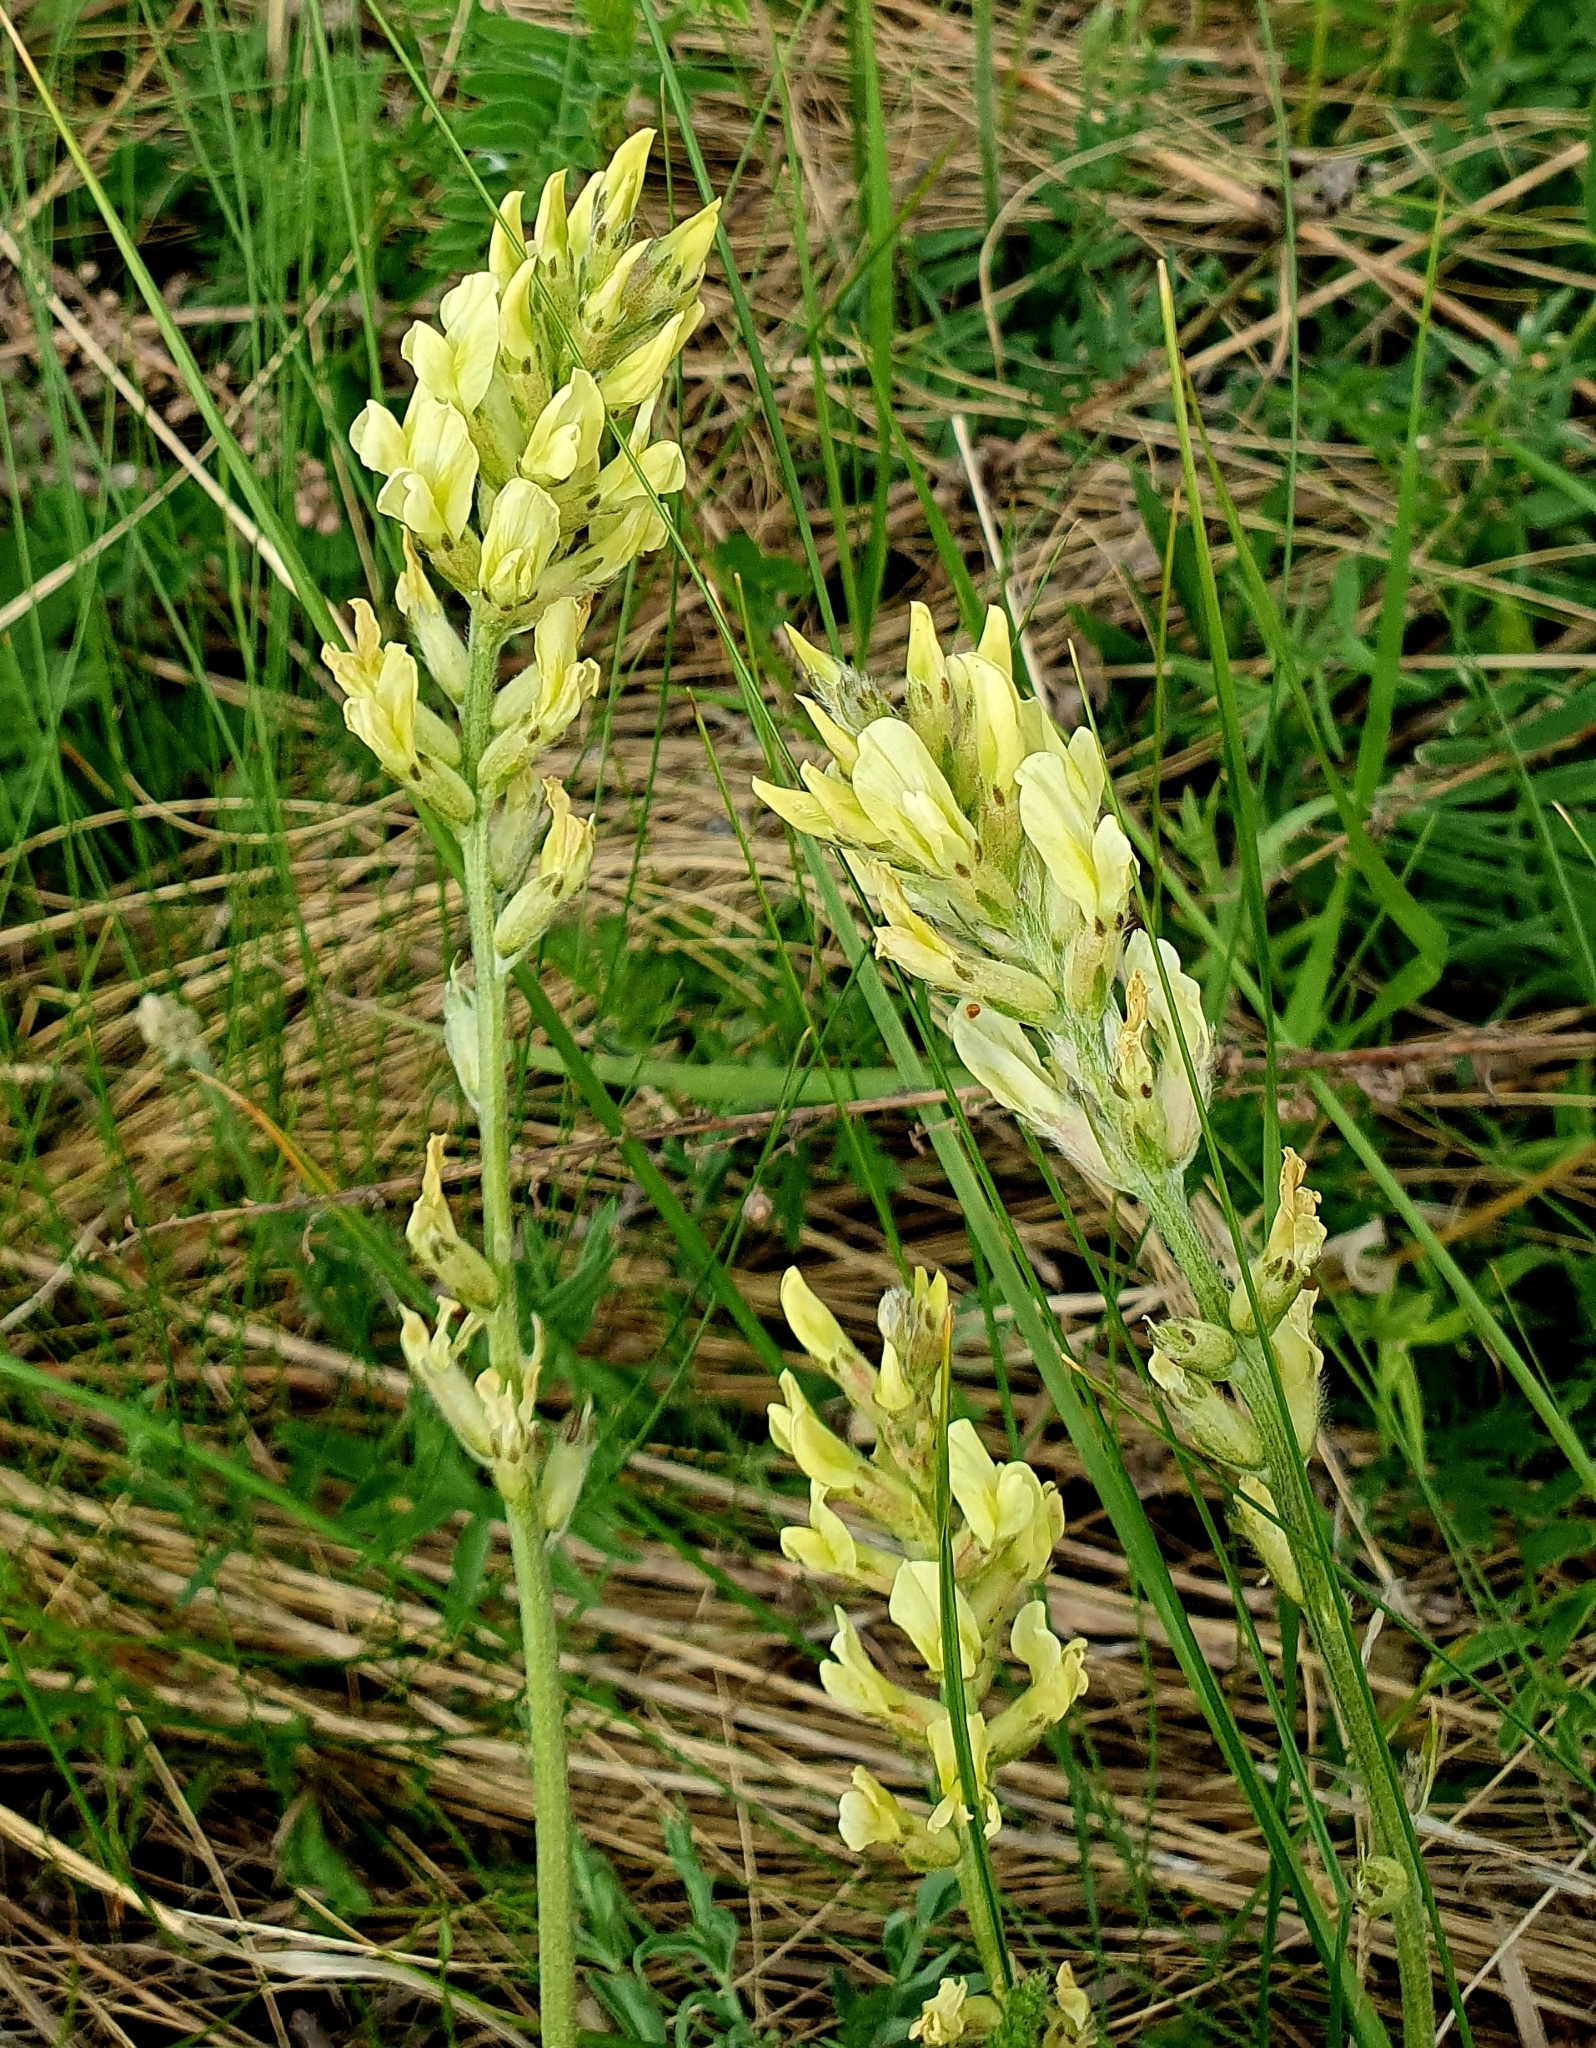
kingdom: Plantae
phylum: Tracheophyta
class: Magnoliopsida
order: Fabales
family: Fabaceae
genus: Oxytropis
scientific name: Oxytropis hippolyti
